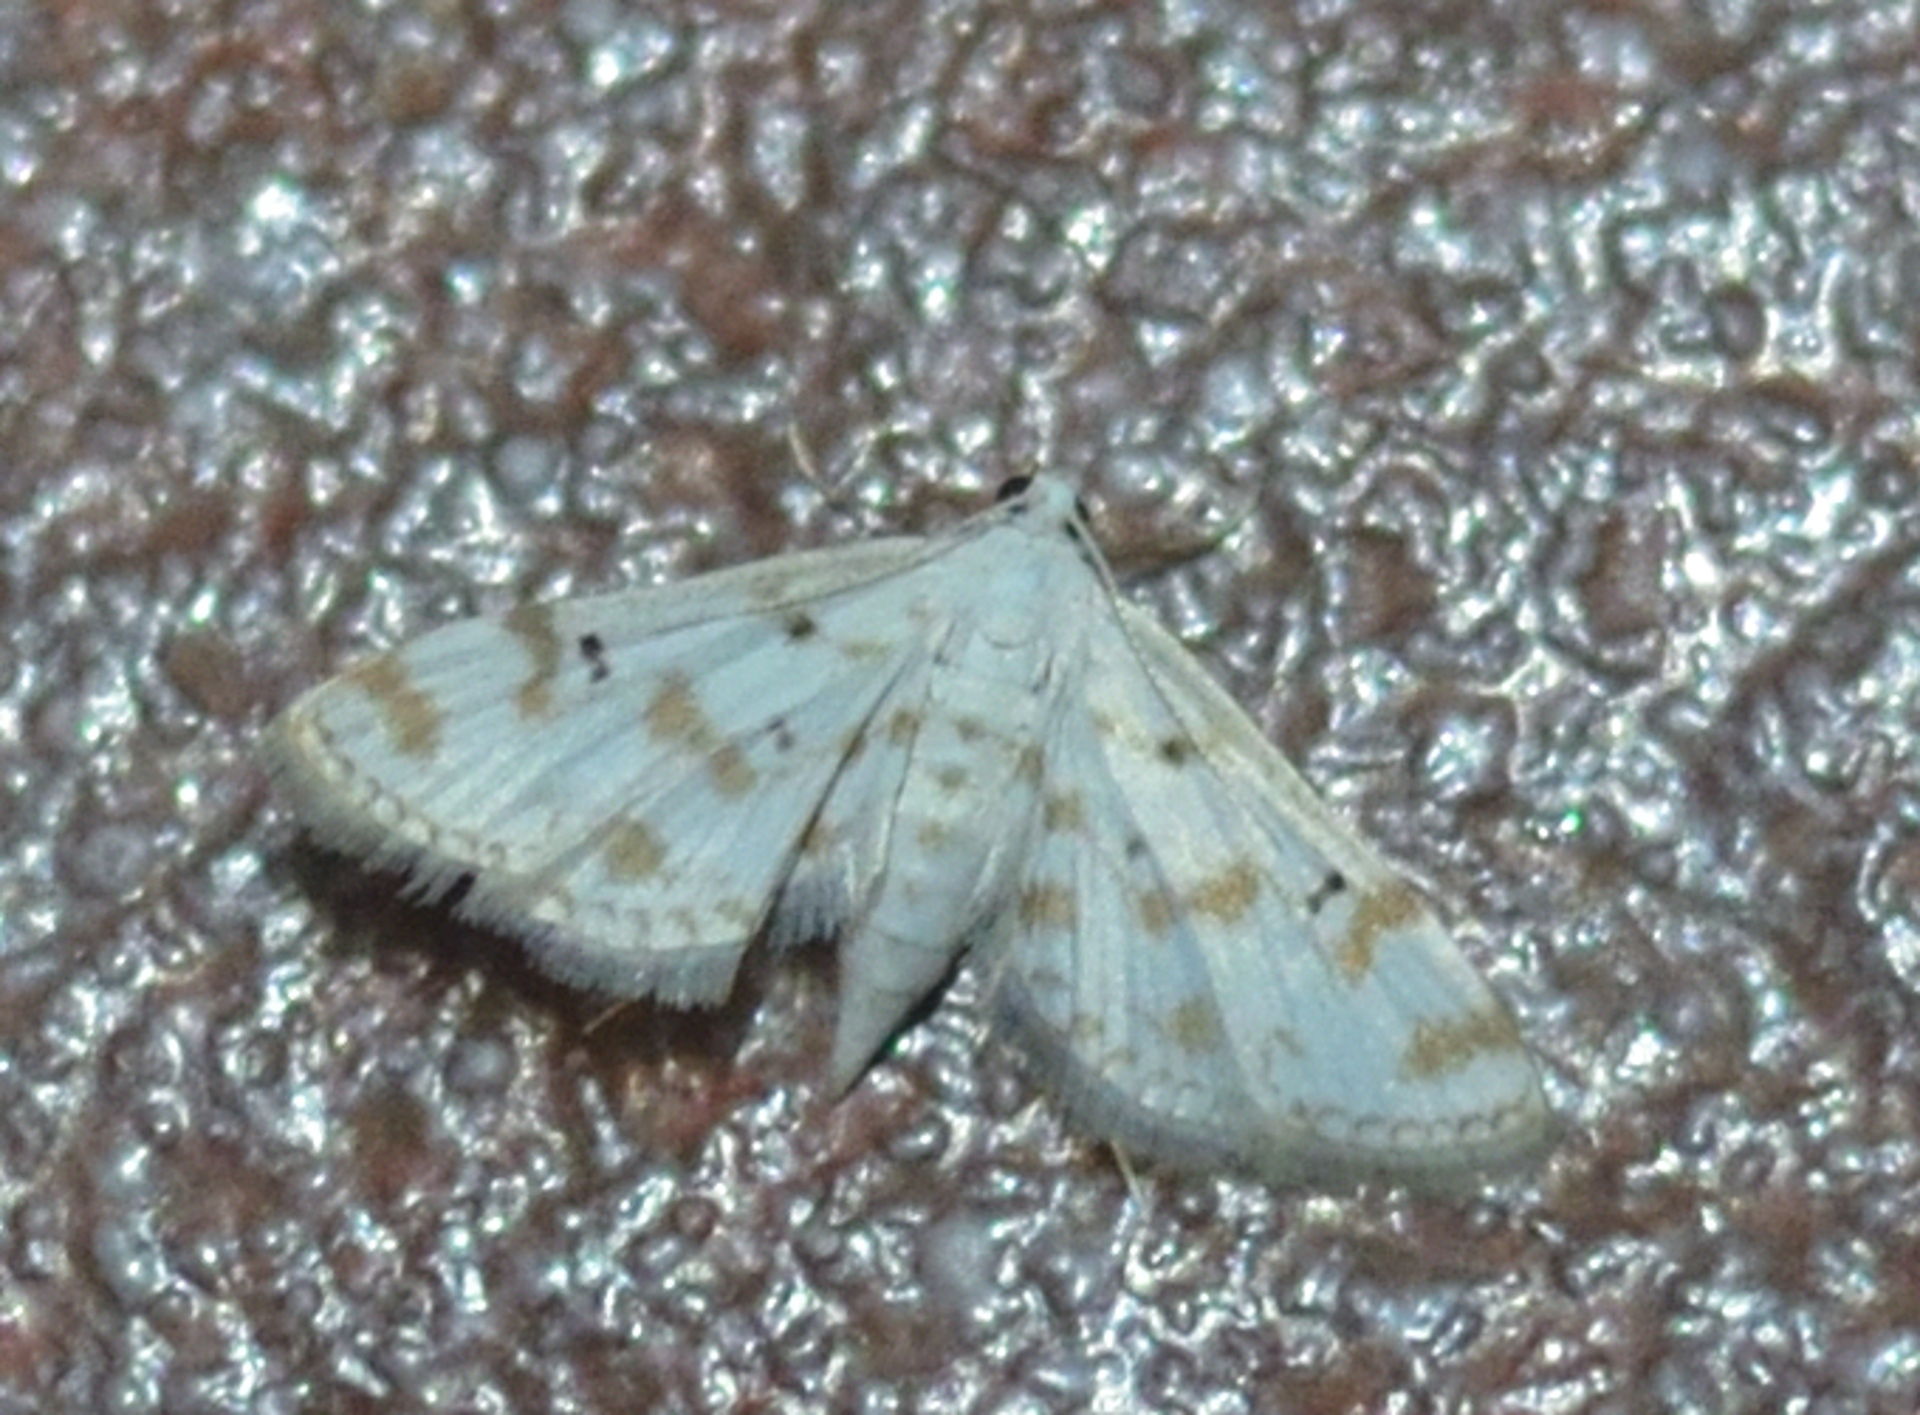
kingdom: Animalia
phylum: Arthropoda
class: Insecta
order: Lepidoptera
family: Crambidae
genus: Parapoynx
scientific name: Parapoynx stagnalis
